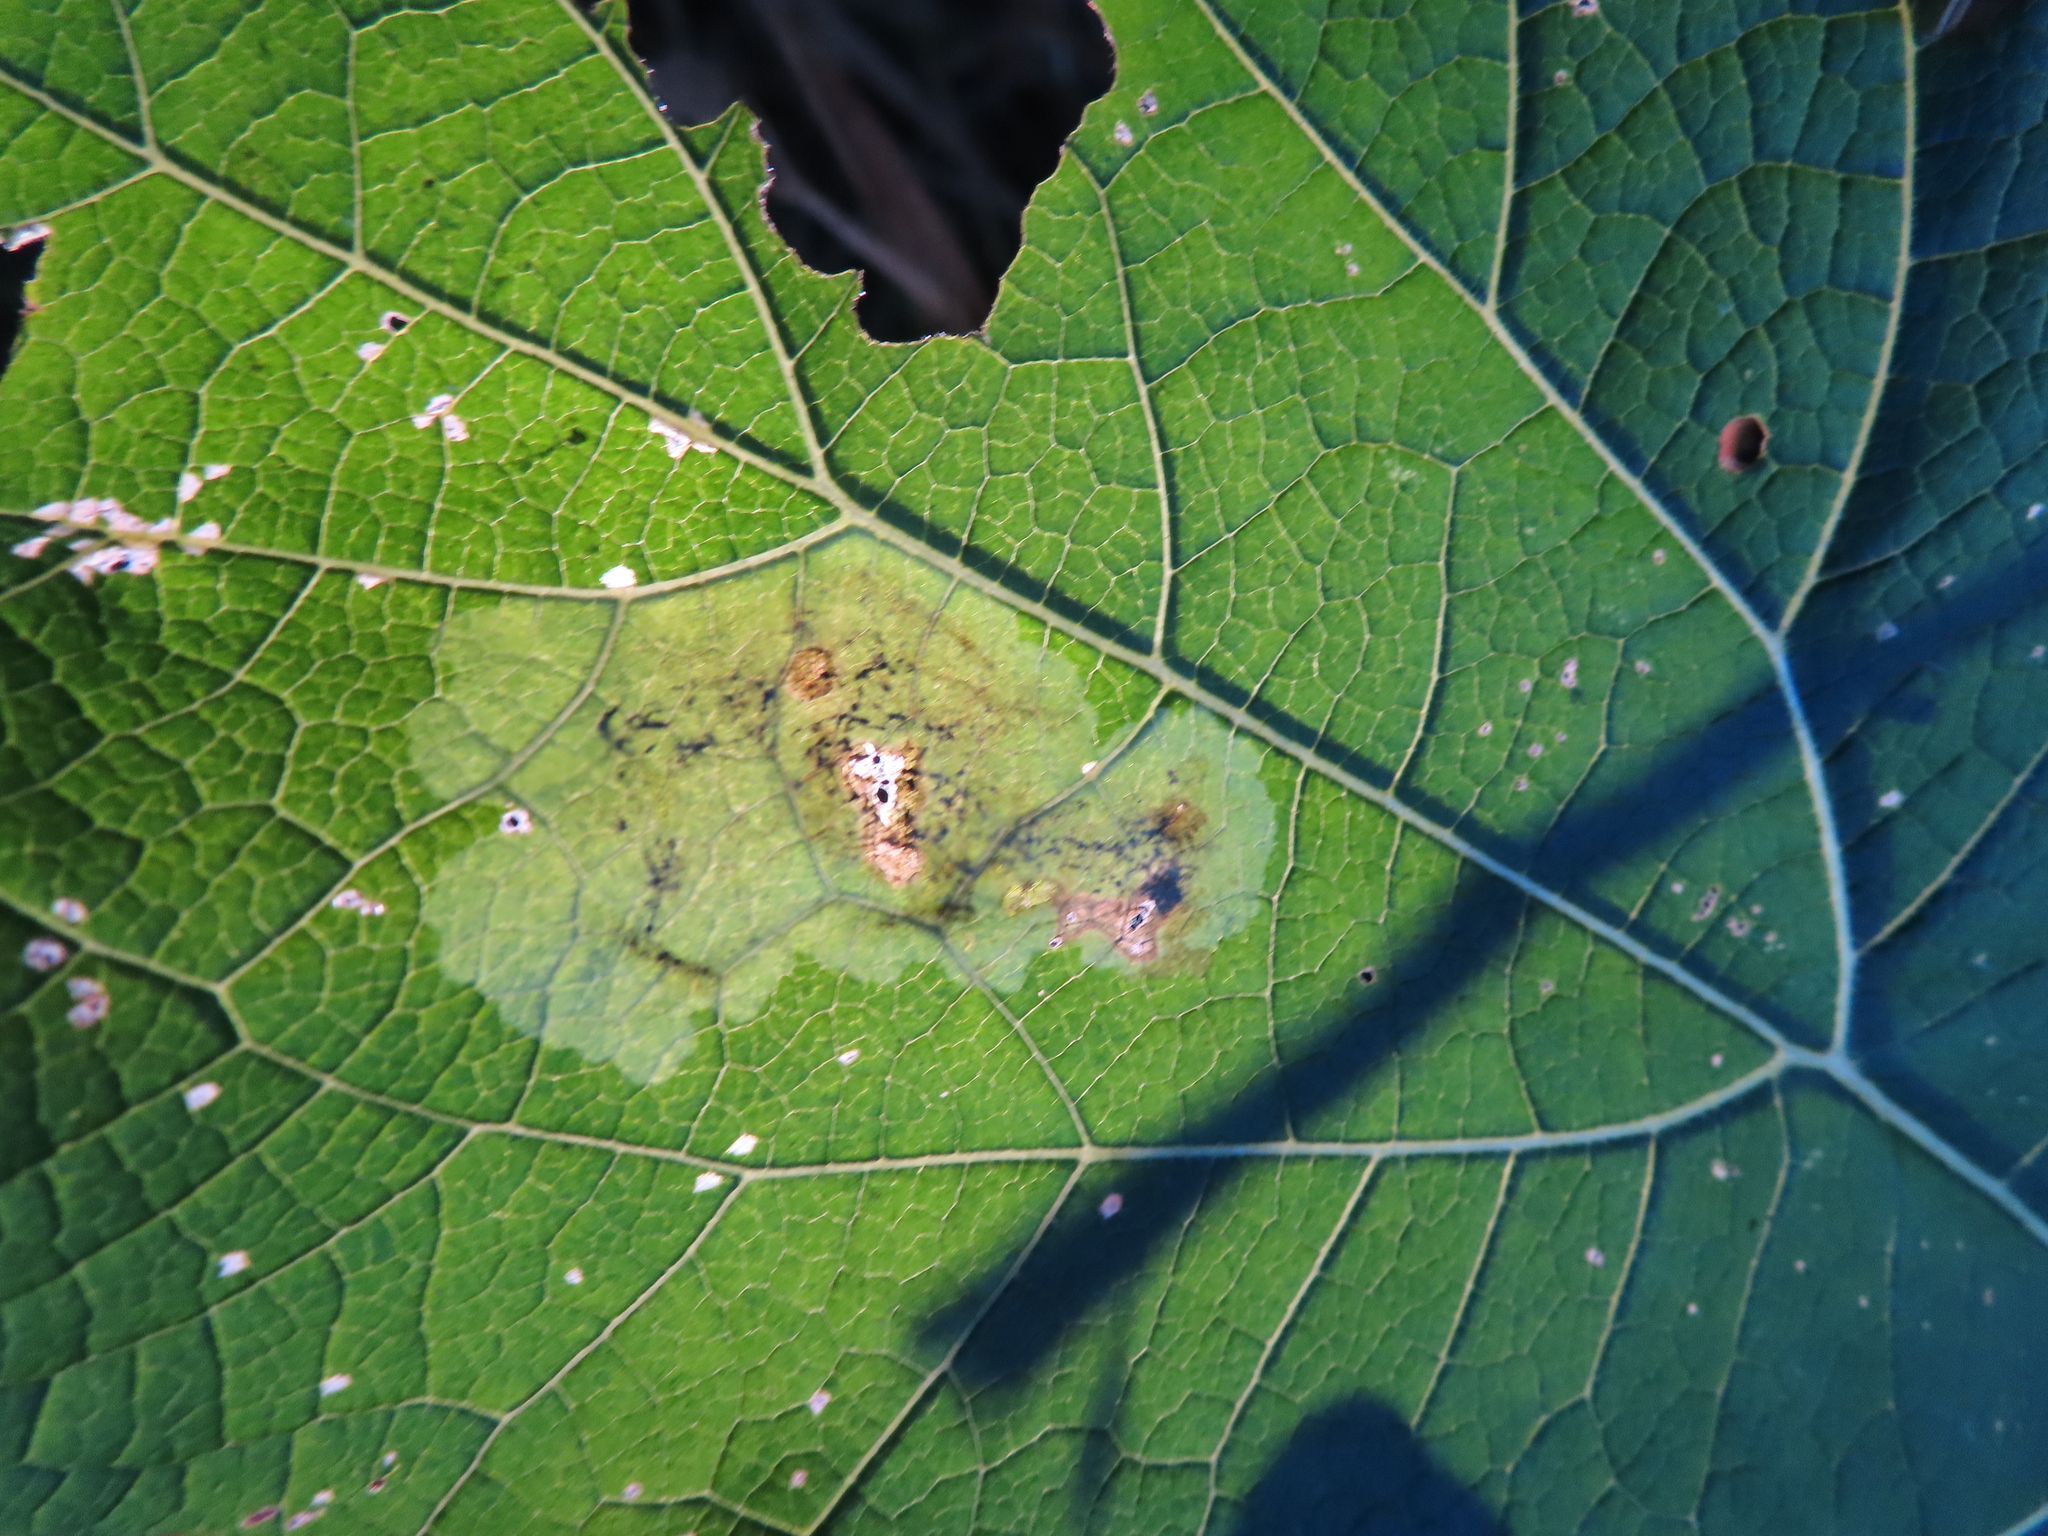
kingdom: Animalia
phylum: Arthropoda
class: Insecta
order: Diptera
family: Agromyzidae
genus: Calycomyza
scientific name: Calycomyza flavinotum
